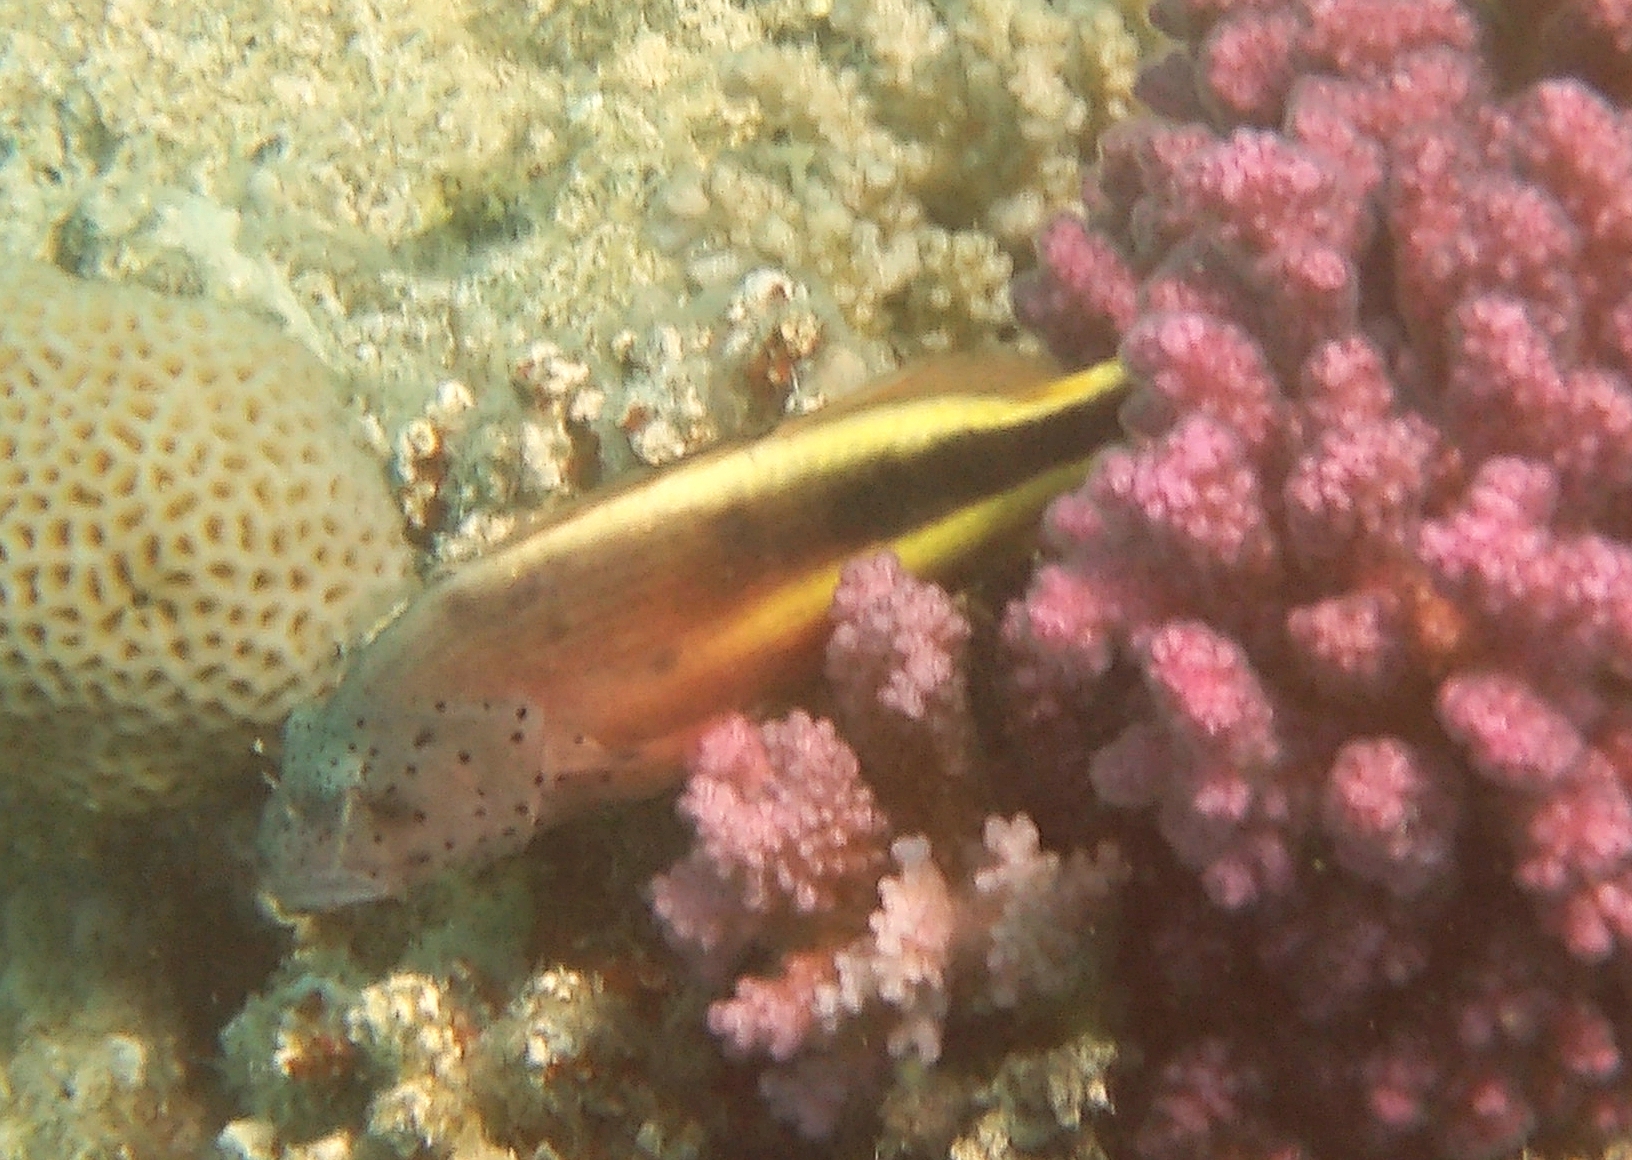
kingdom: Animalia
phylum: Chordata
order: Perciformes
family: Cirrhitidae
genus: Paracirrhites
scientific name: Paracirrhites forsteri
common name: Freckled hawkfish
